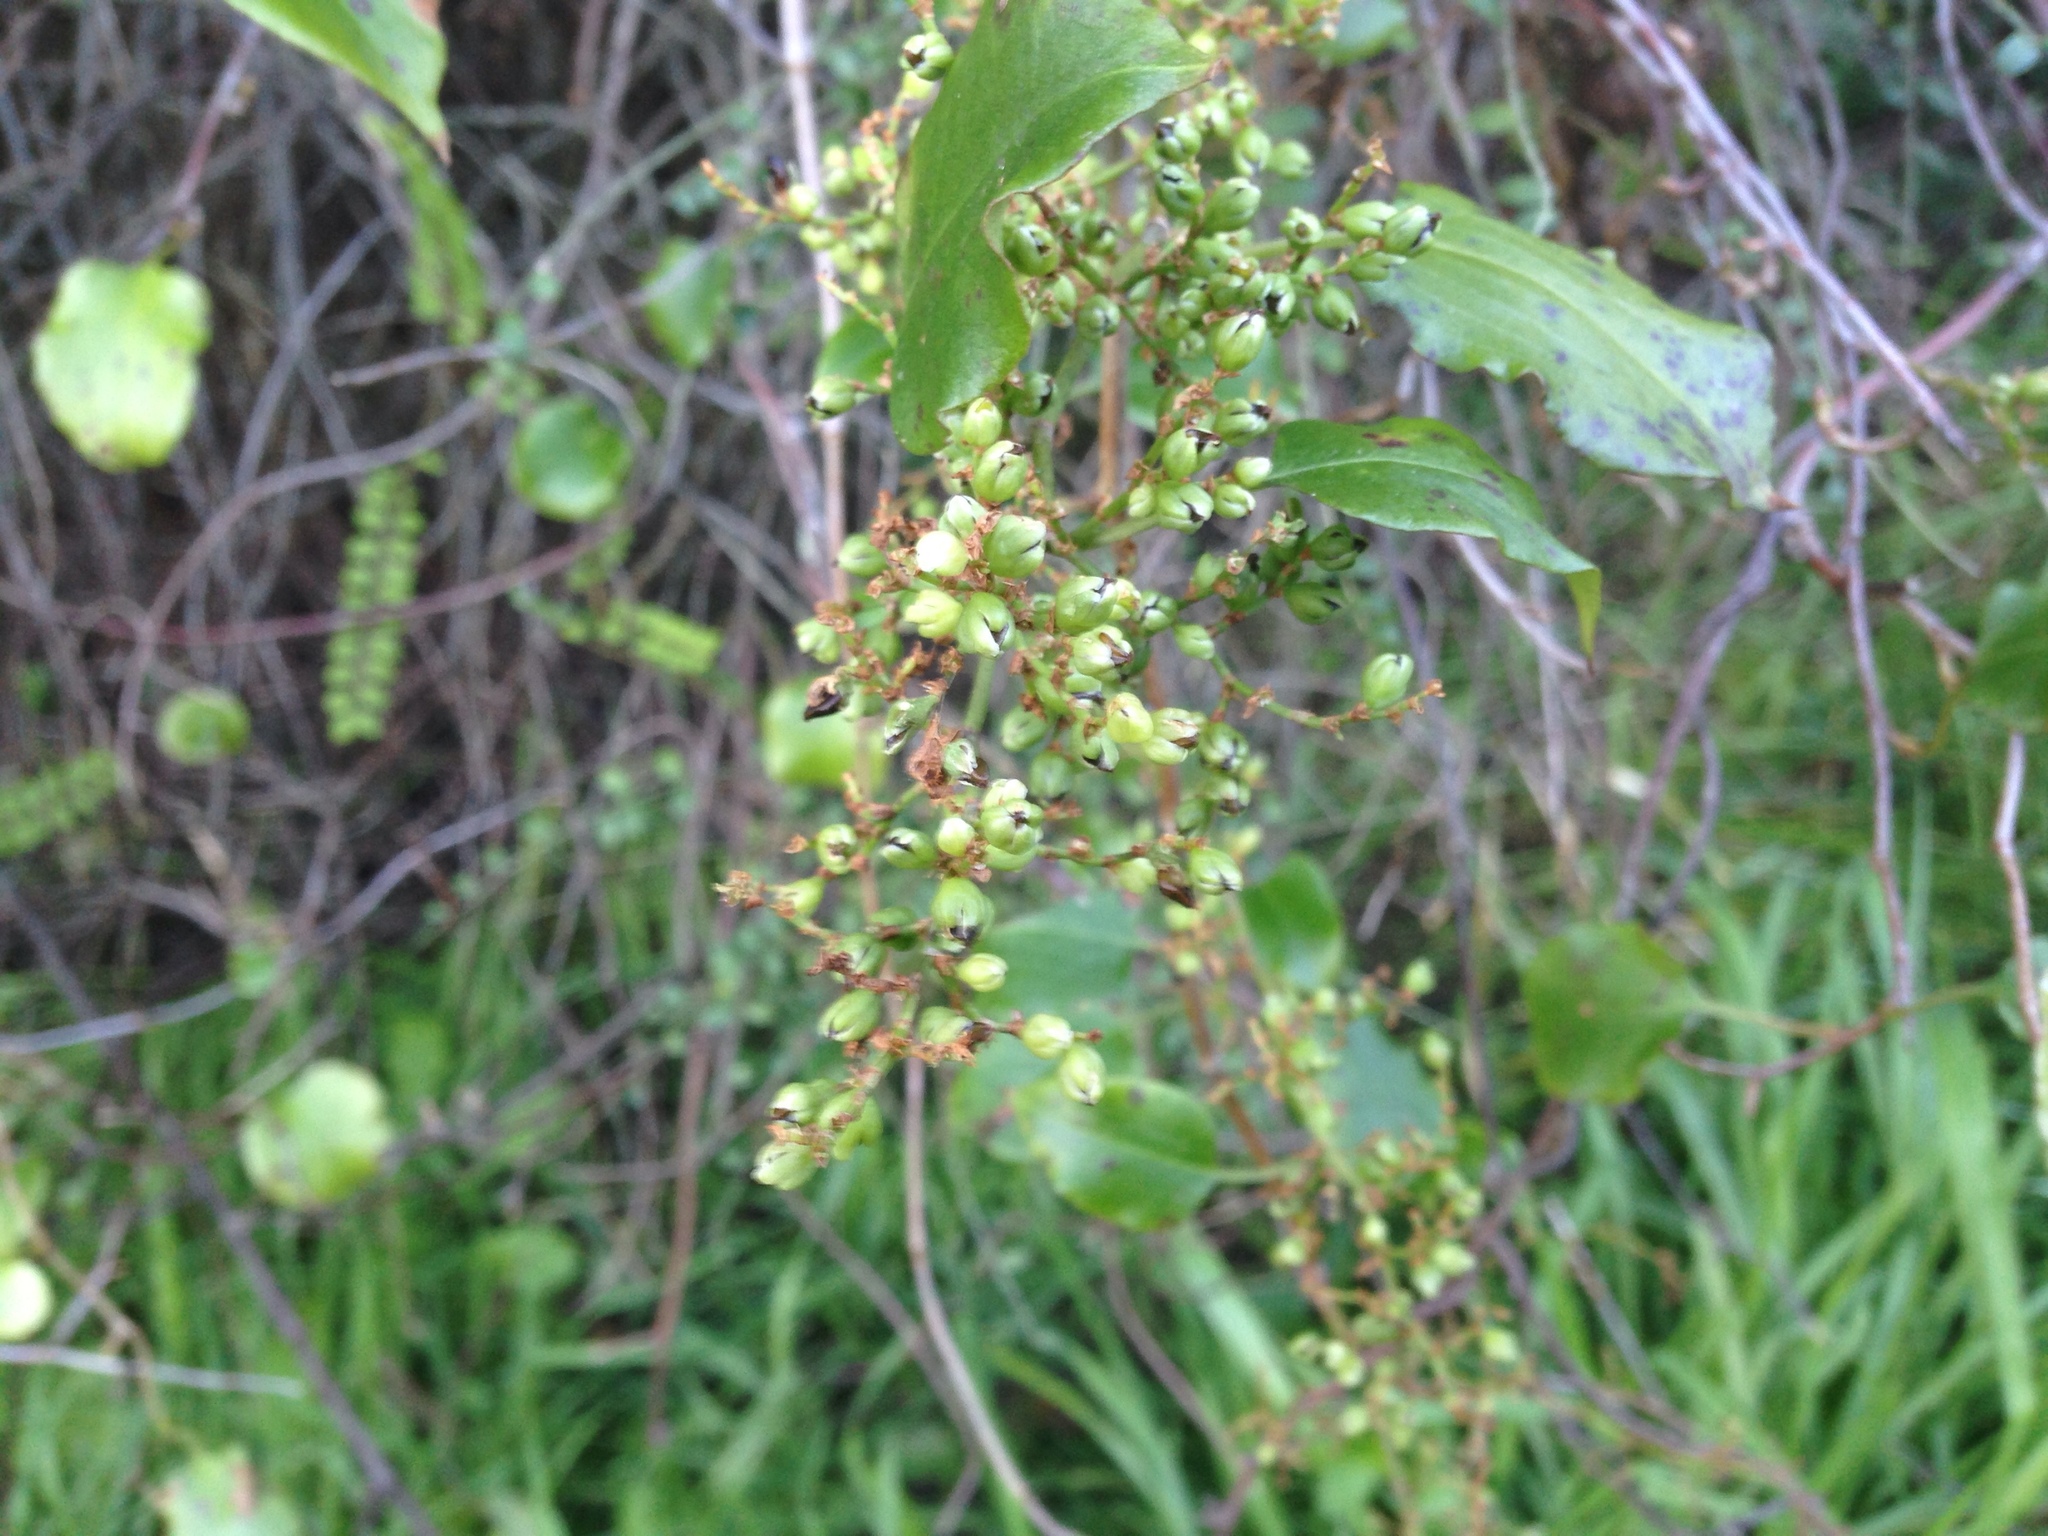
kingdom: Plantae
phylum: Tracheophyta
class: Magnoliopsida
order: Caryophyllales
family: Polygonaceae
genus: Muehlenbeckia
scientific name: Muehlenbeckia australis
